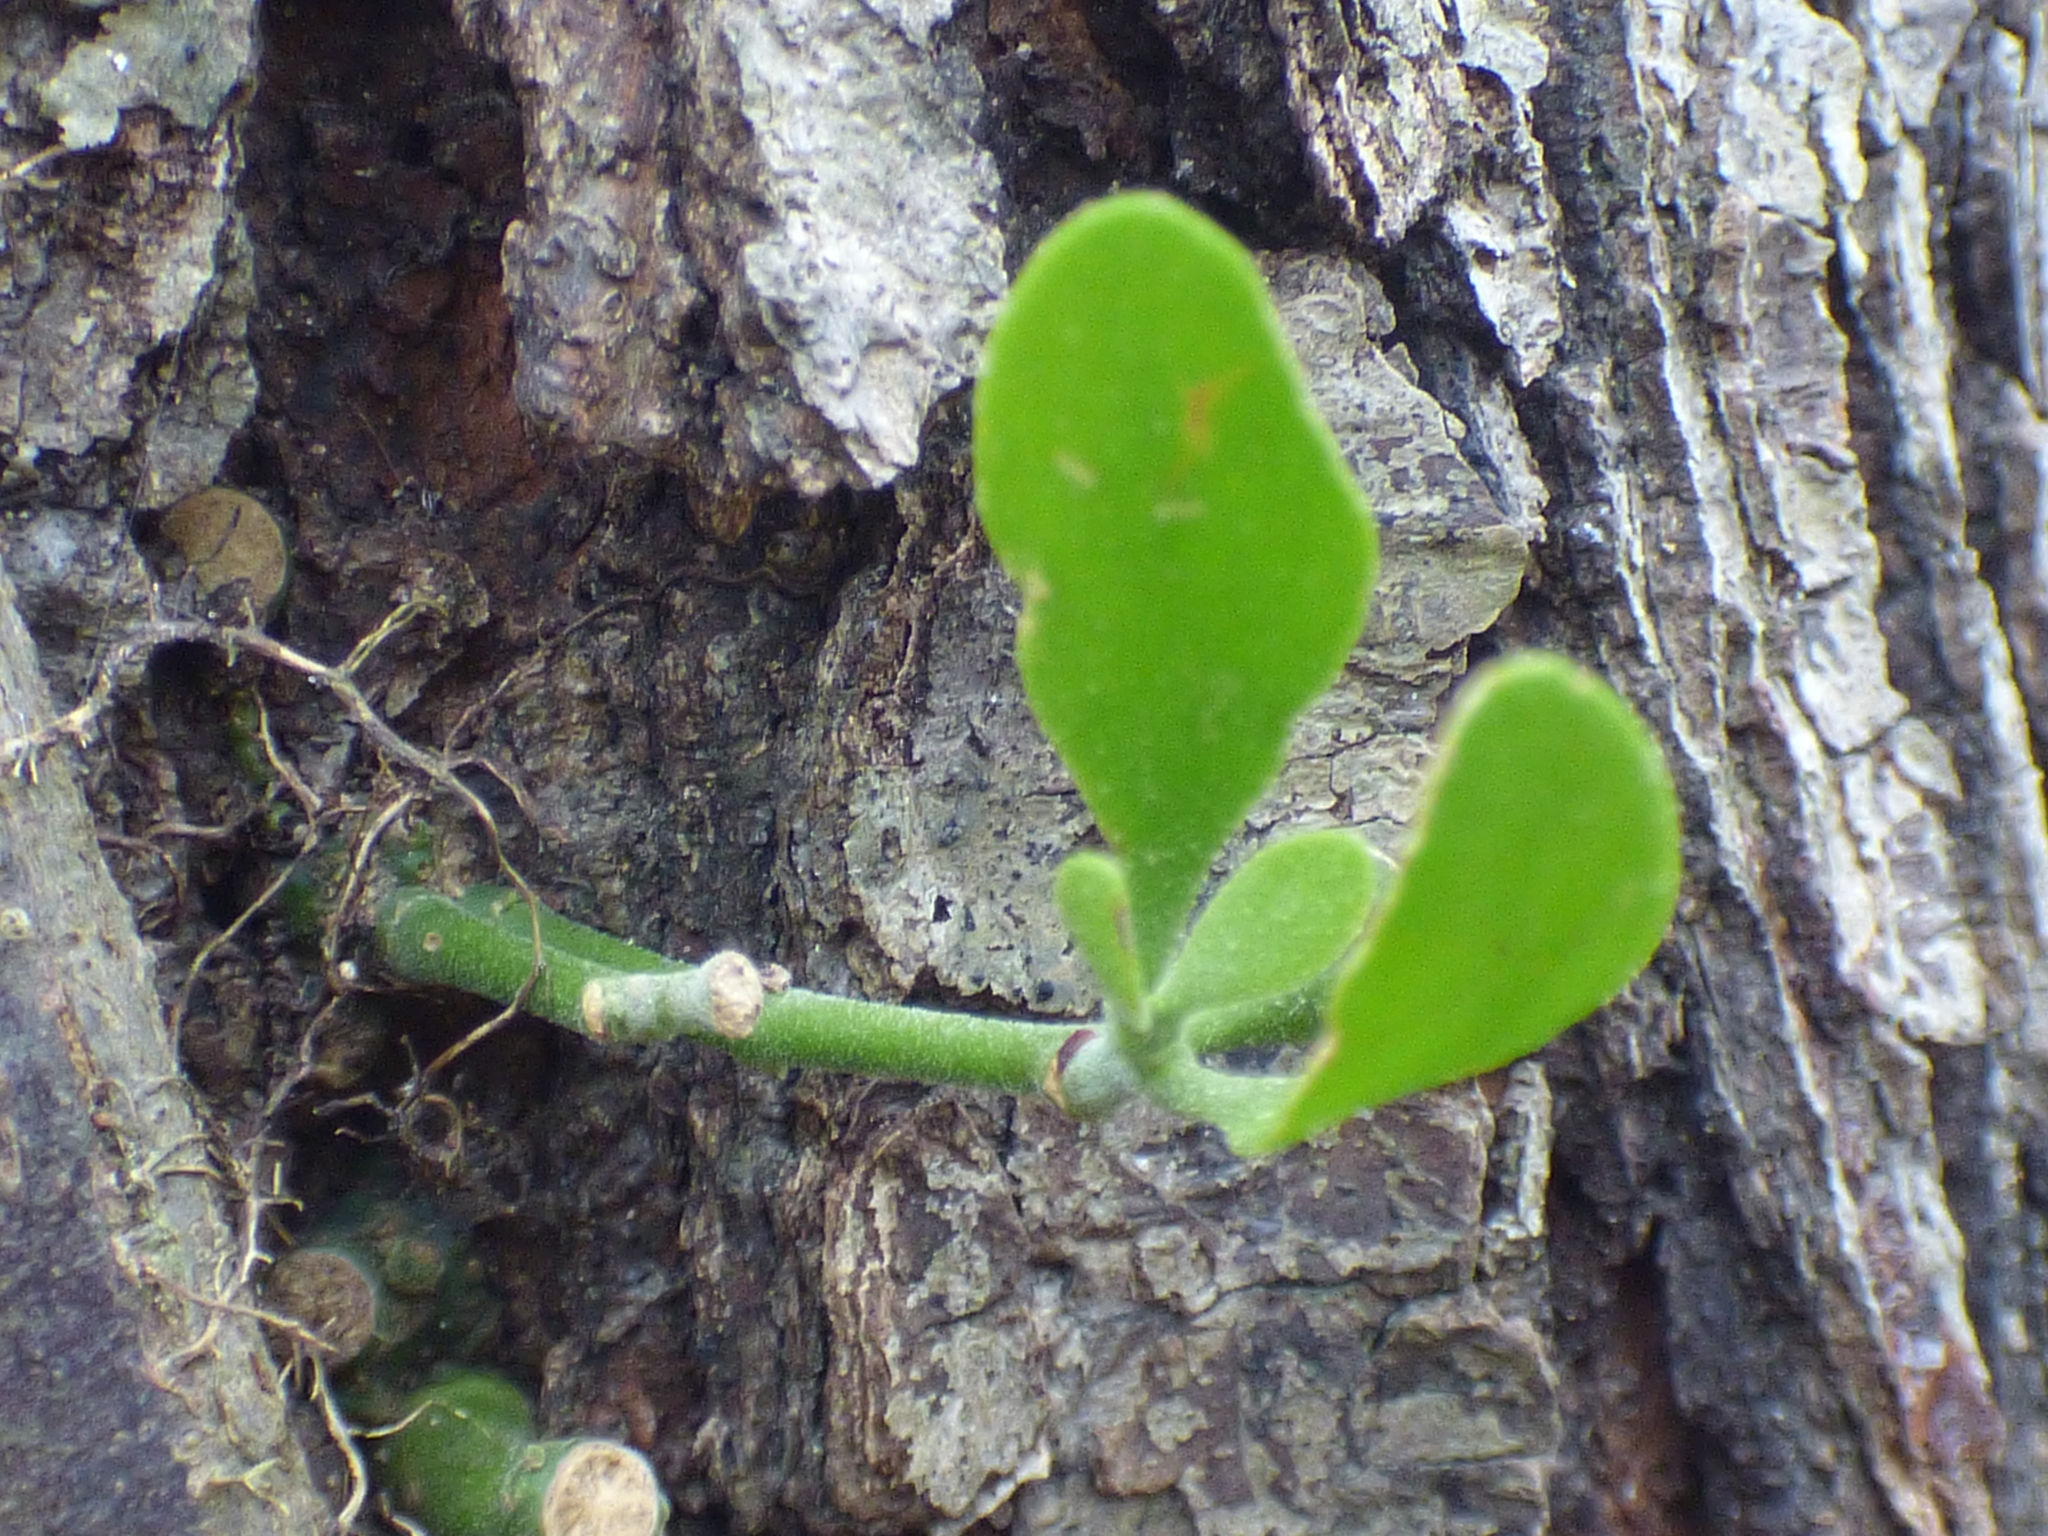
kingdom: Plantae
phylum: Tracheophyta
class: Magnoliopsida
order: Santalales
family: Viscaceae
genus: Phoradendron
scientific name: Phoradendron leucarpum
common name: Pacific mistletoe
